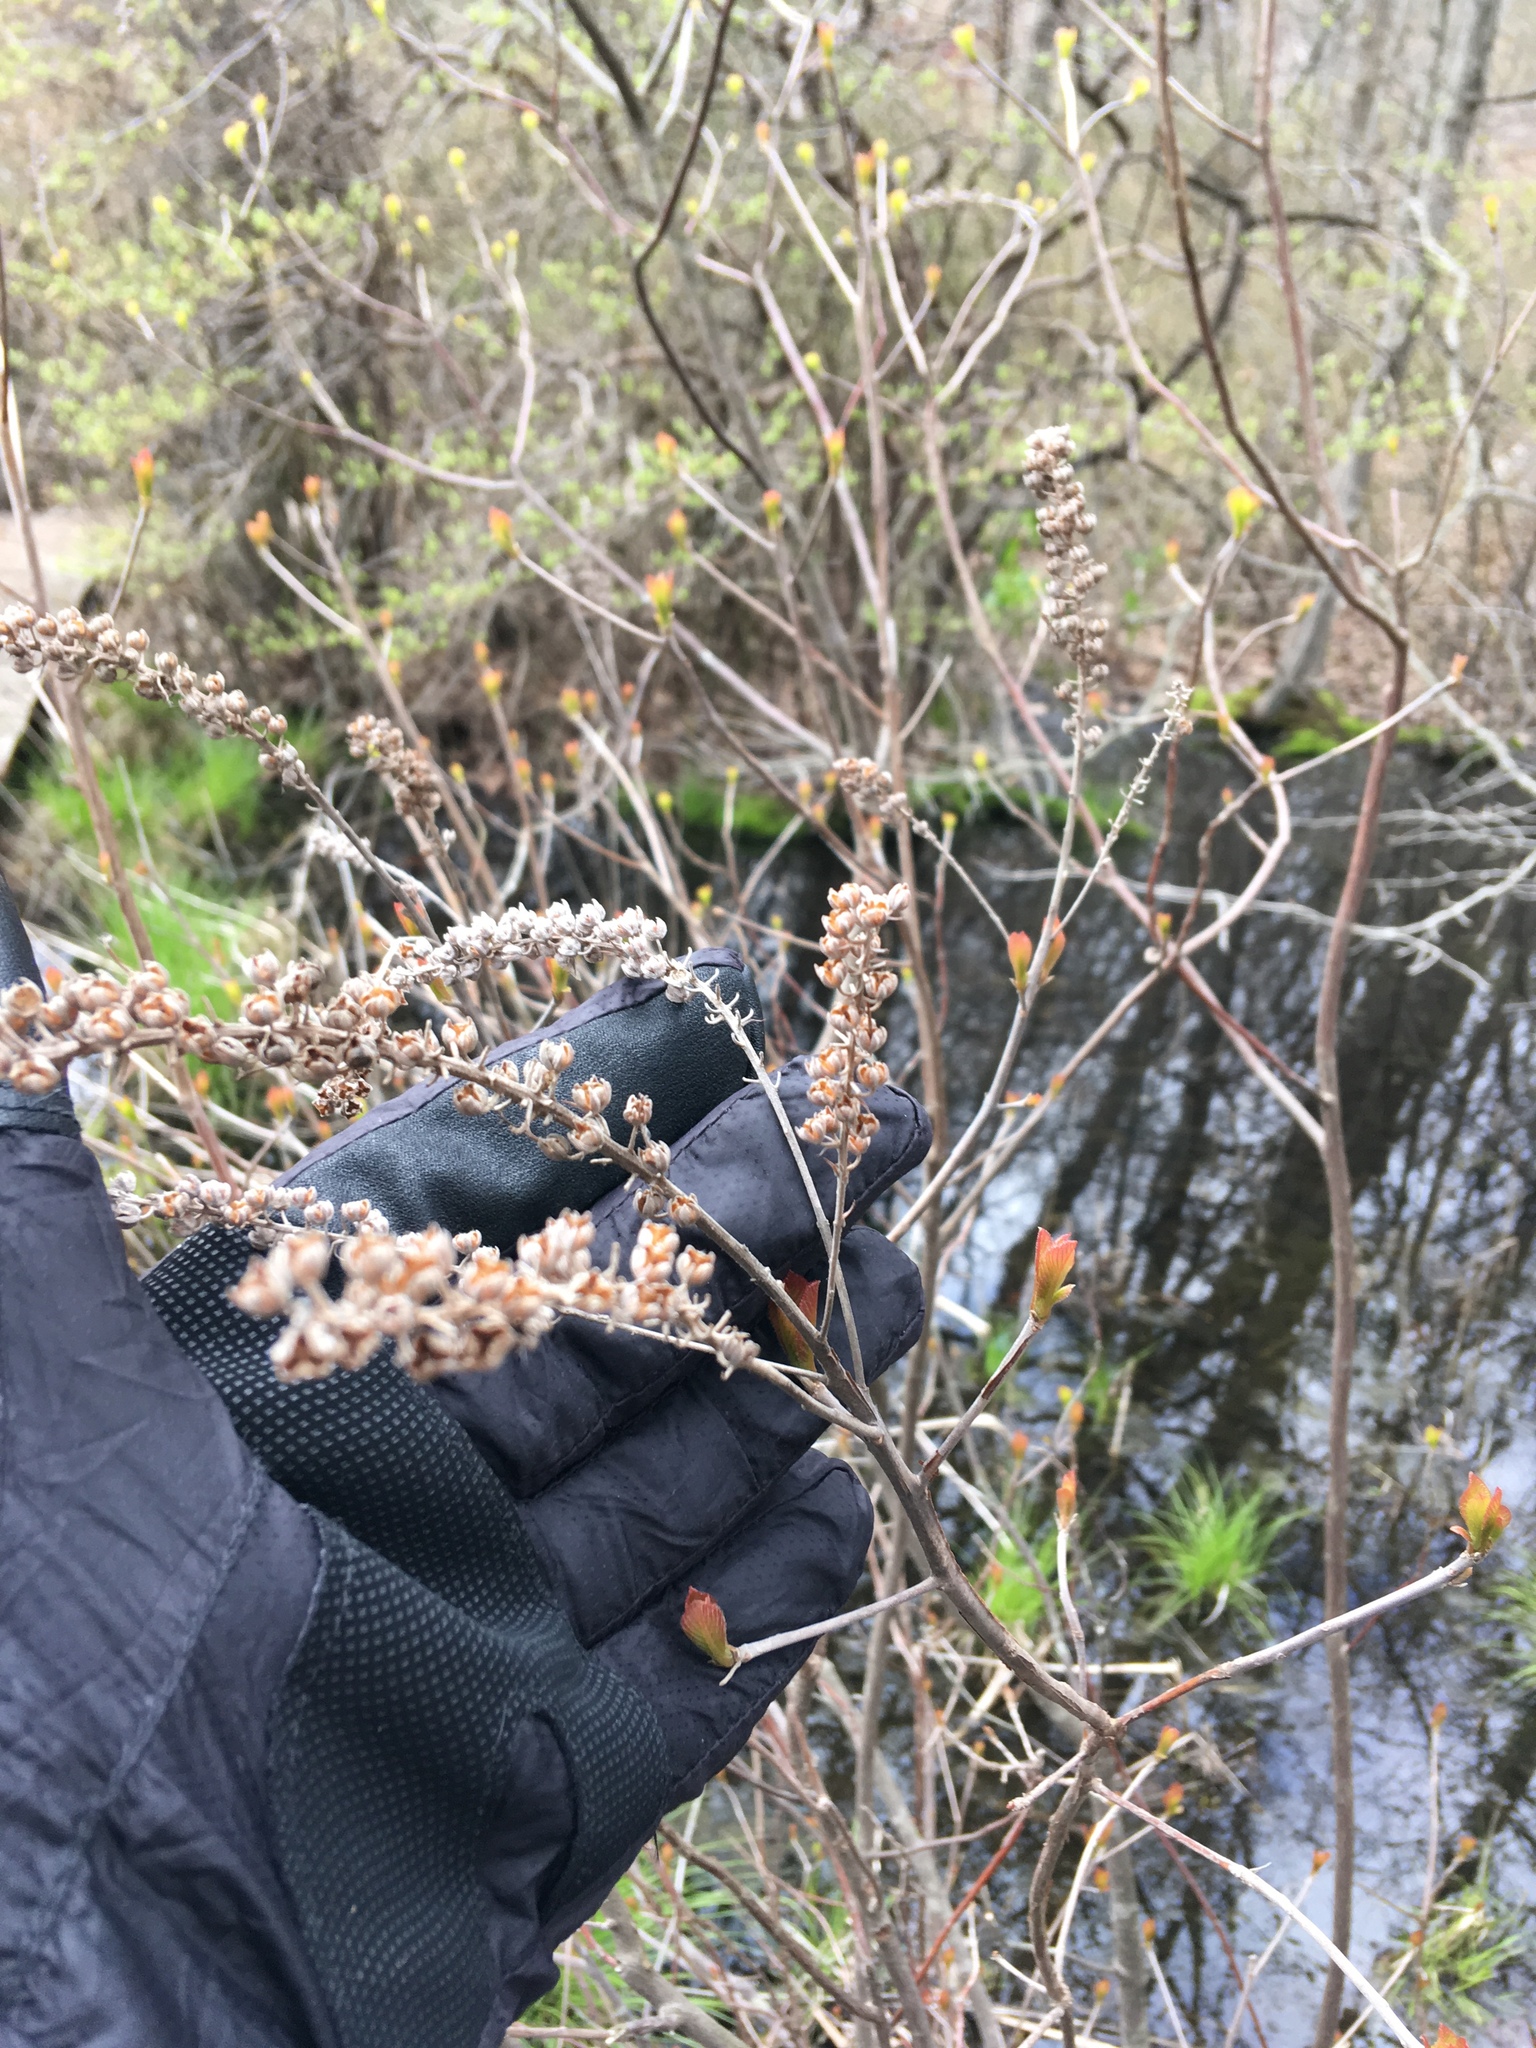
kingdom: Plantae
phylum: Tracheophyta
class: Magnoliopsida
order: Ericales
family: Clethraceae
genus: Clethra
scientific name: Clethra alnifolia
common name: Sweet pepperbush
